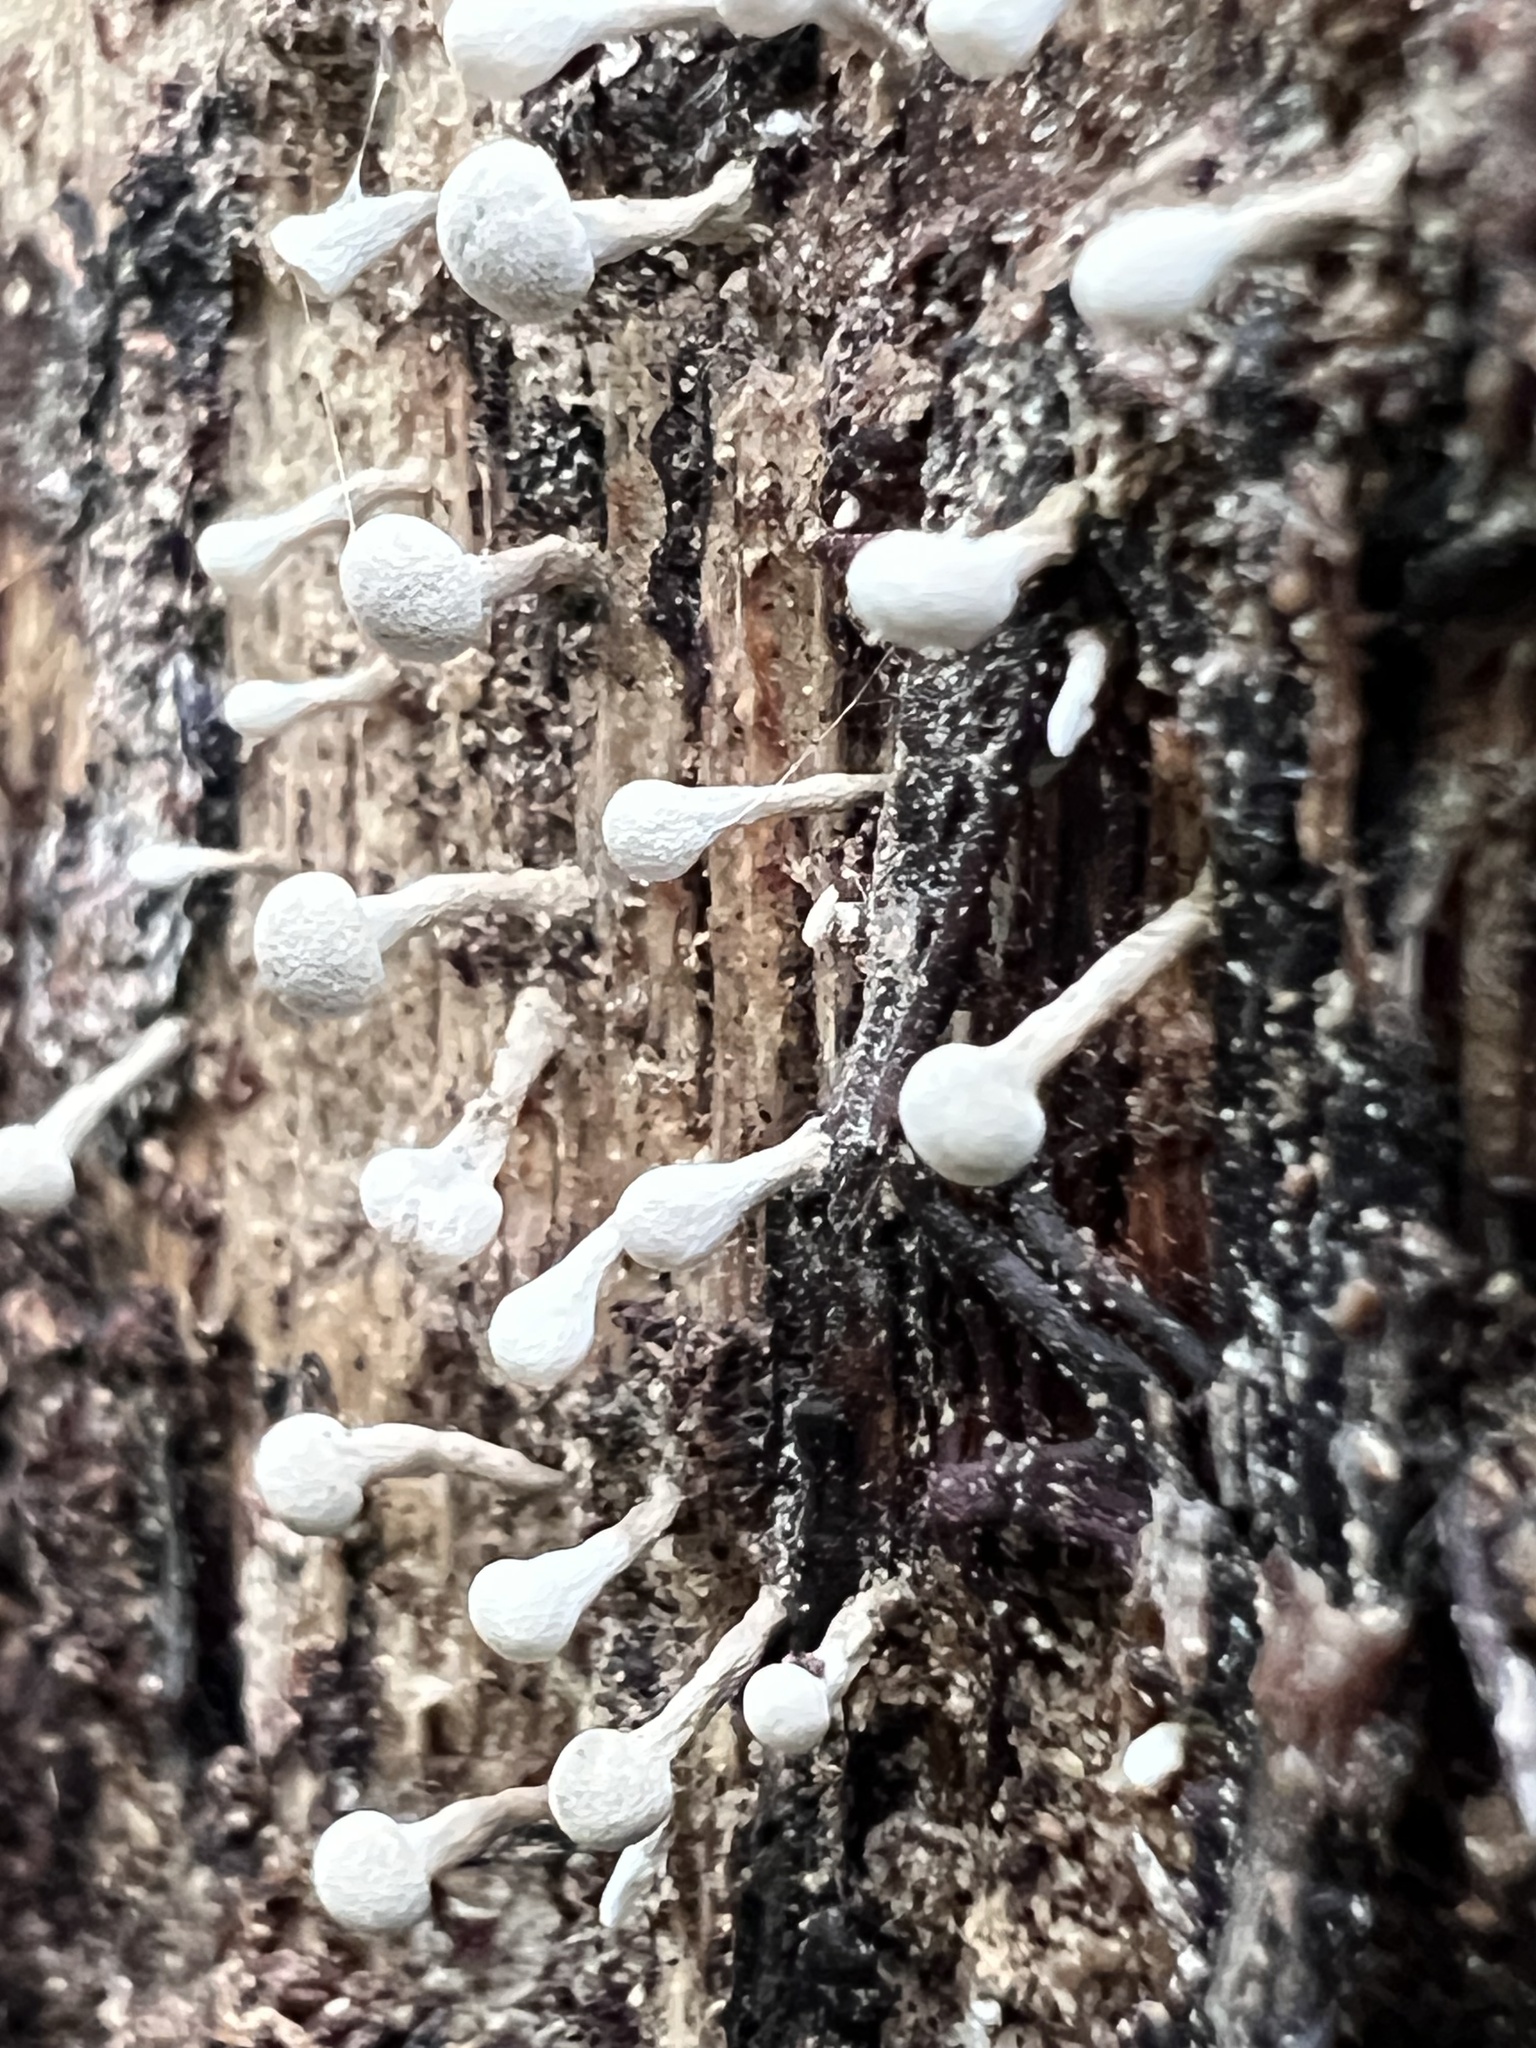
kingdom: Fungi
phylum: Basidiomycota
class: Atractiellomycetes
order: Atractiellales
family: Phleogenaceae
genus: Phleogena
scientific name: Phleogena faginea
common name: Fenugreek stalkball
